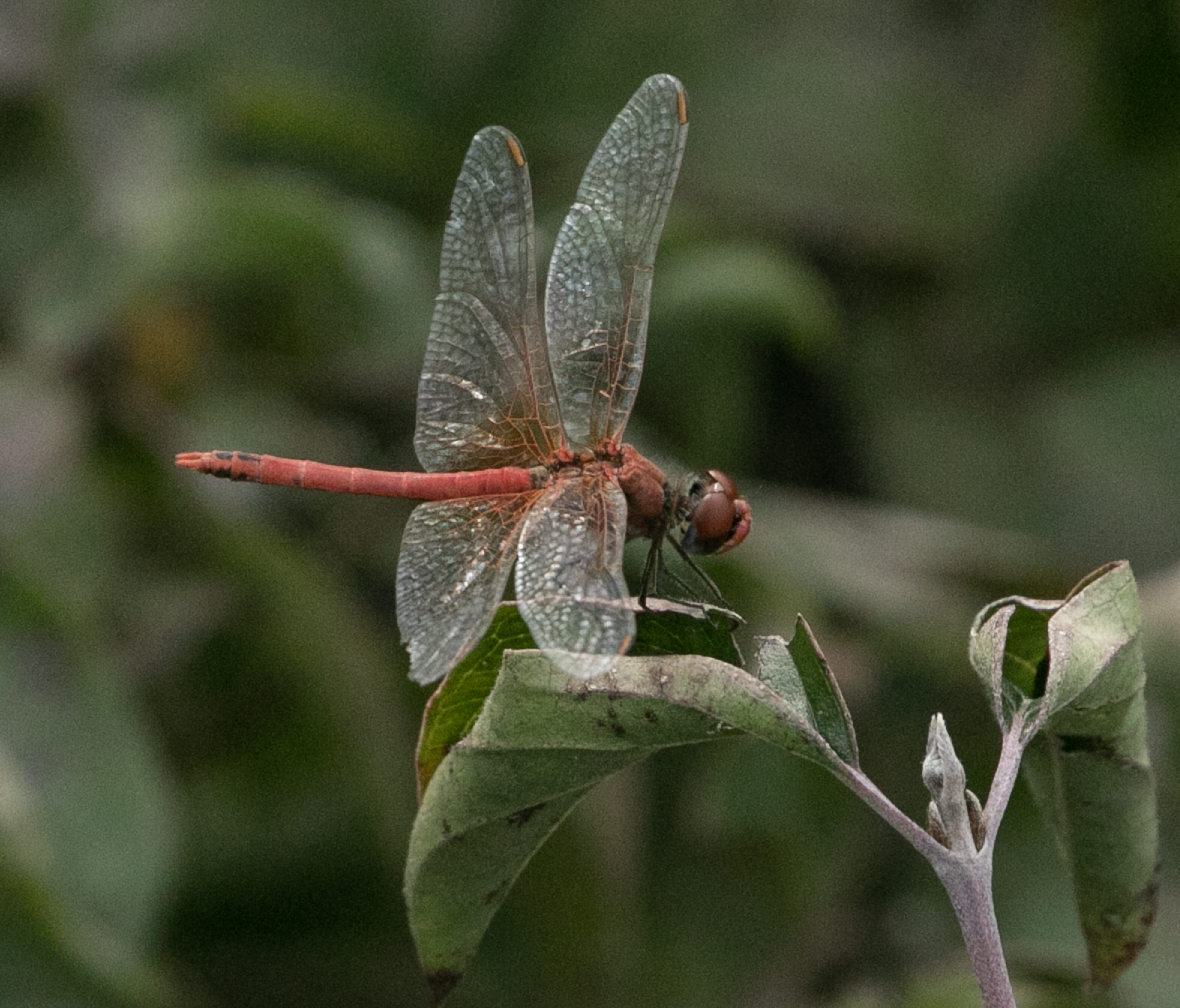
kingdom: Animalia
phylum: Arthropoda
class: Insecta
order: Odonata
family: Libellulidae
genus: Sympetrum
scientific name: Sympetrum fonscolombii
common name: Red-veined darter
